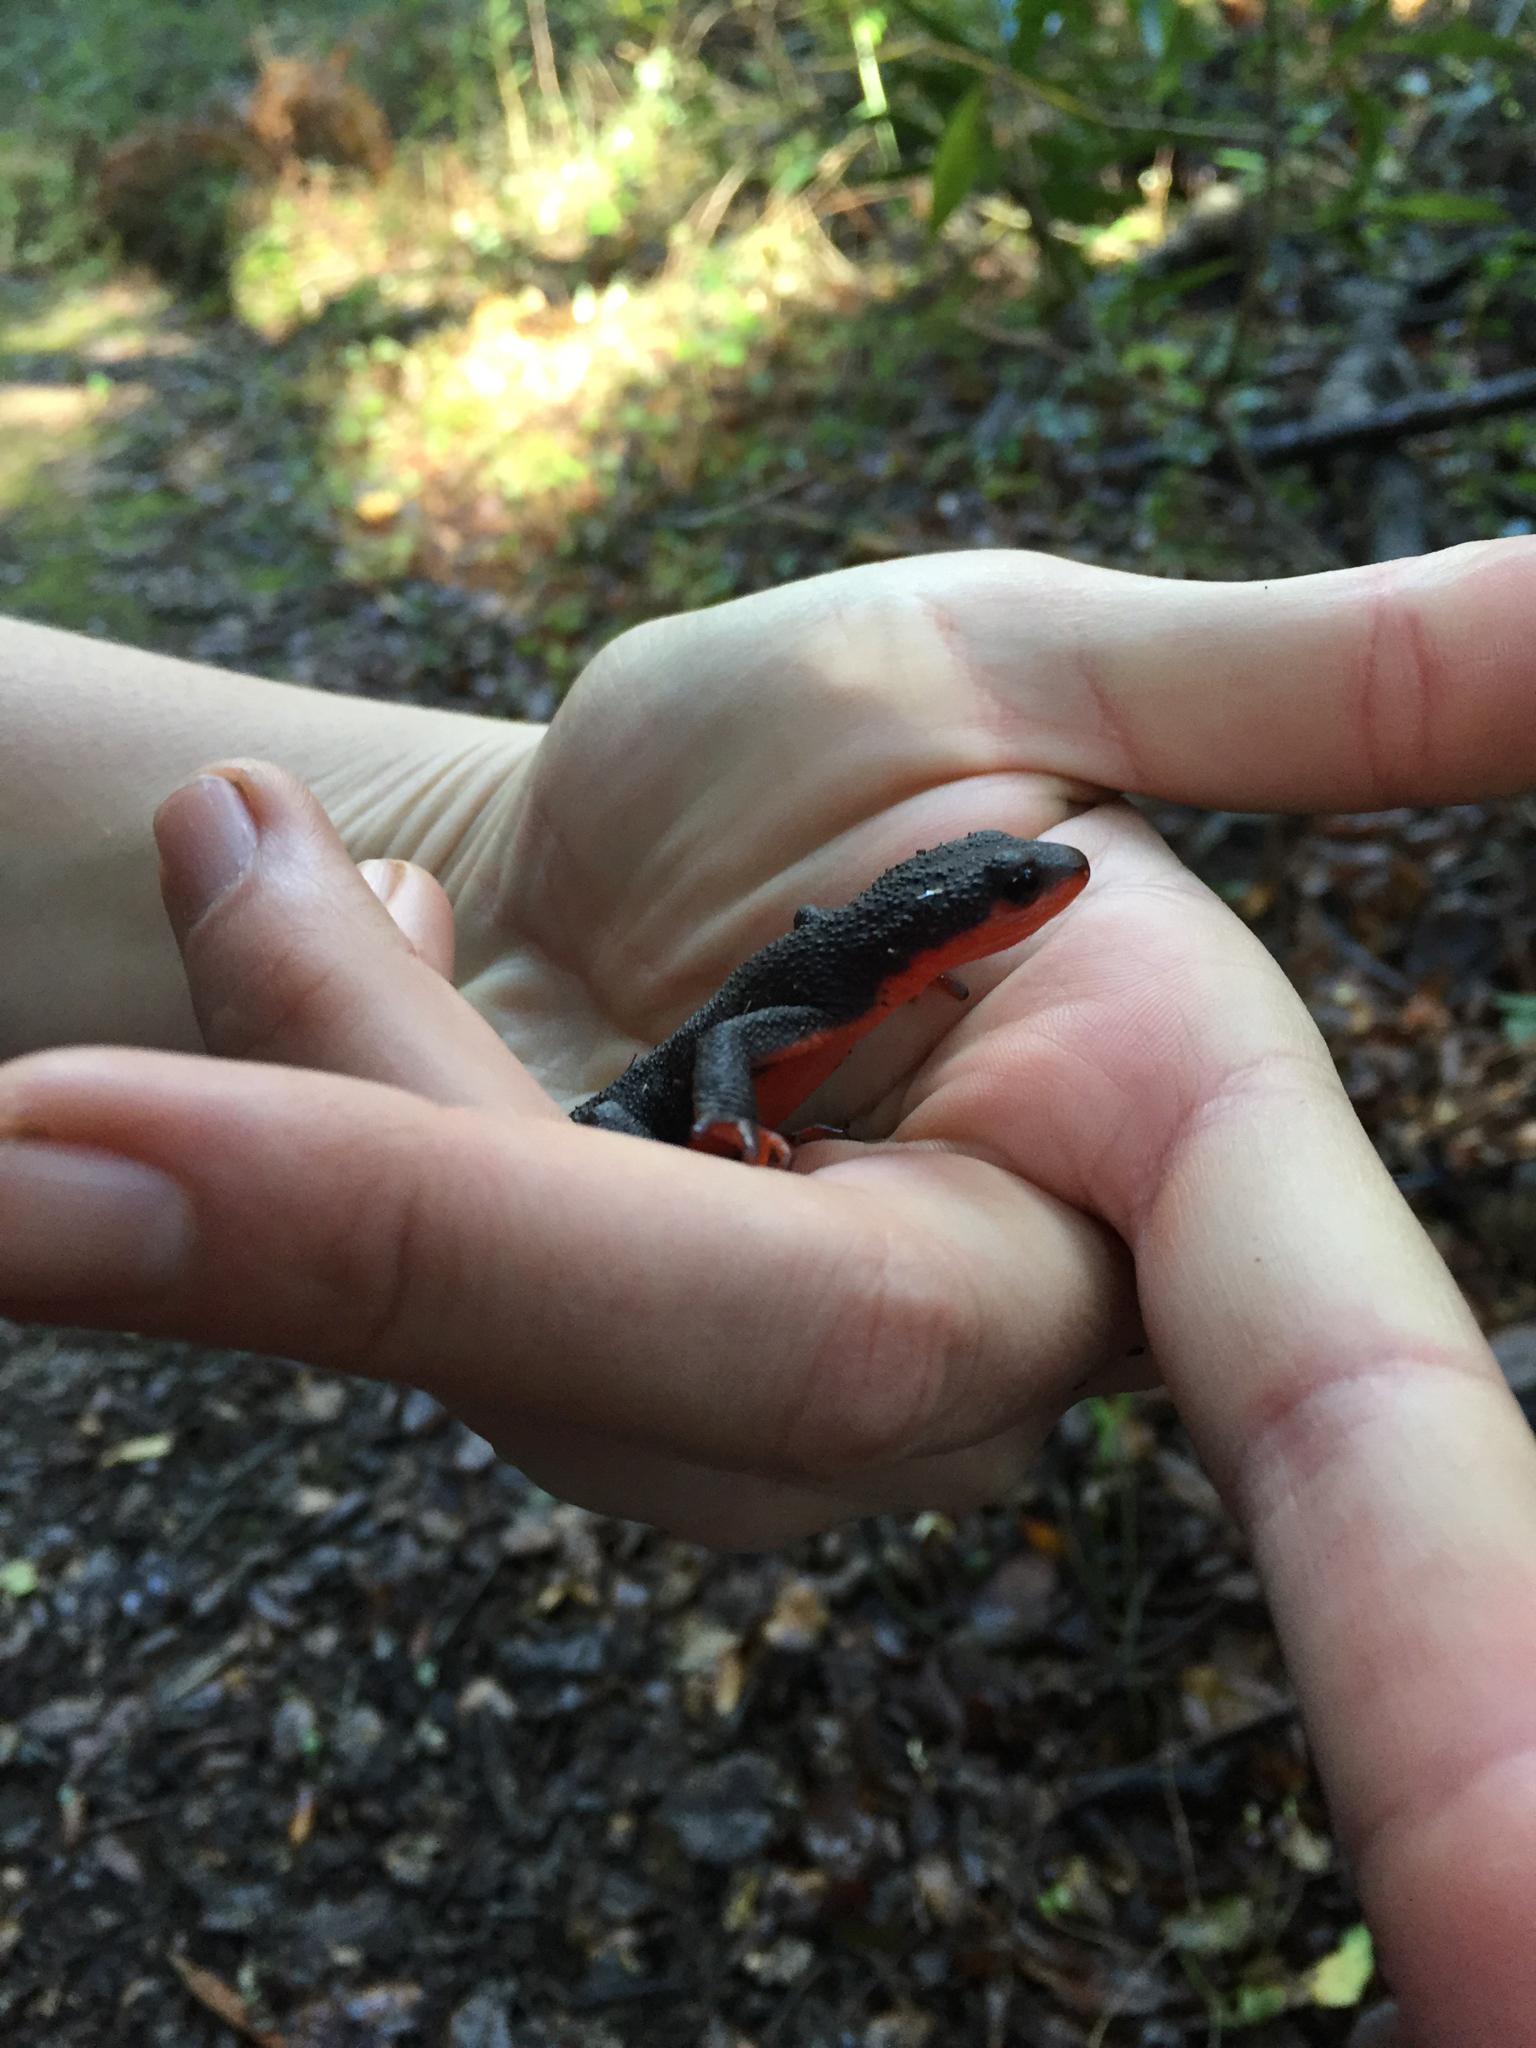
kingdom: Animalia
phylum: Chordata
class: Amphibia
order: Caudata
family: Salamandridae
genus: Taricha
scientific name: Taricha rivularis
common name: Red-bellied newt
